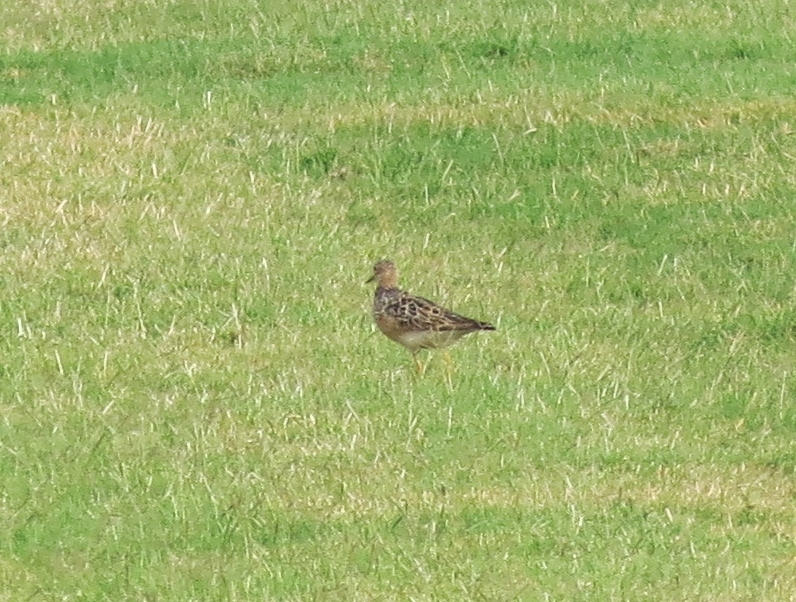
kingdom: Animalia
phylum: Chordata
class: Aves
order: Charadriiformes
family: Scolopacidae
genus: Calidris
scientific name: Calidris subruficollis
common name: Buff-breasted sandpiper
